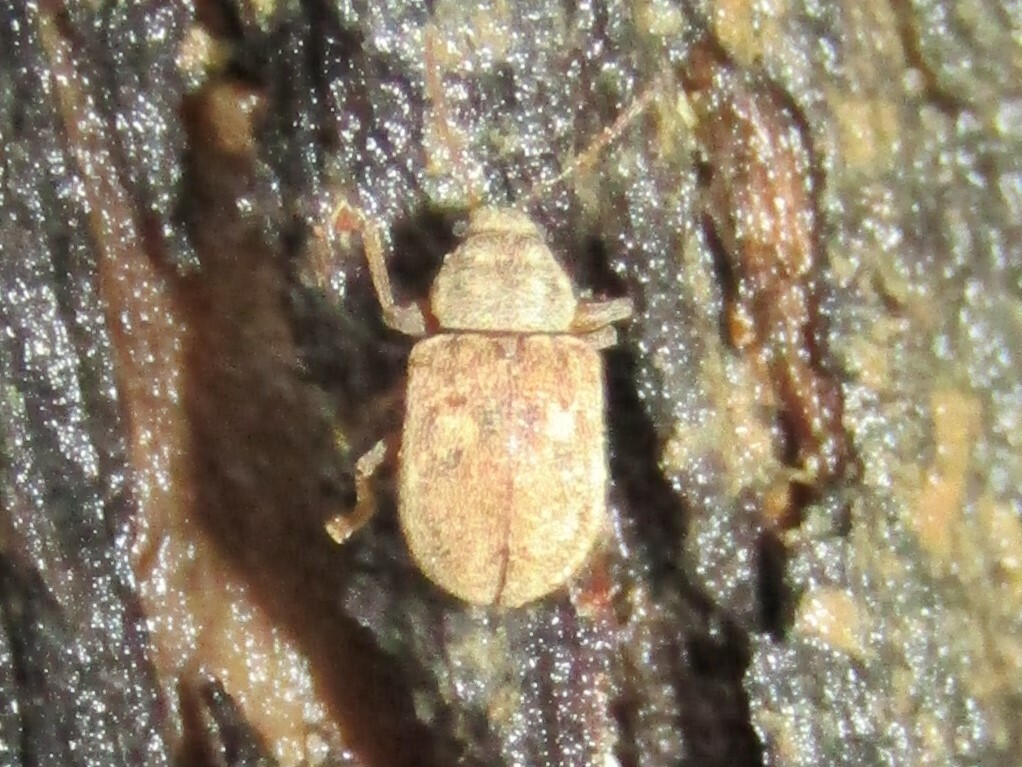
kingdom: Animalia
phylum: Arthropoda
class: Insecta
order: Coleoptera
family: Chrysomelidae
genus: Demotina
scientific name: Demotina modesta
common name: Leaf beetle
